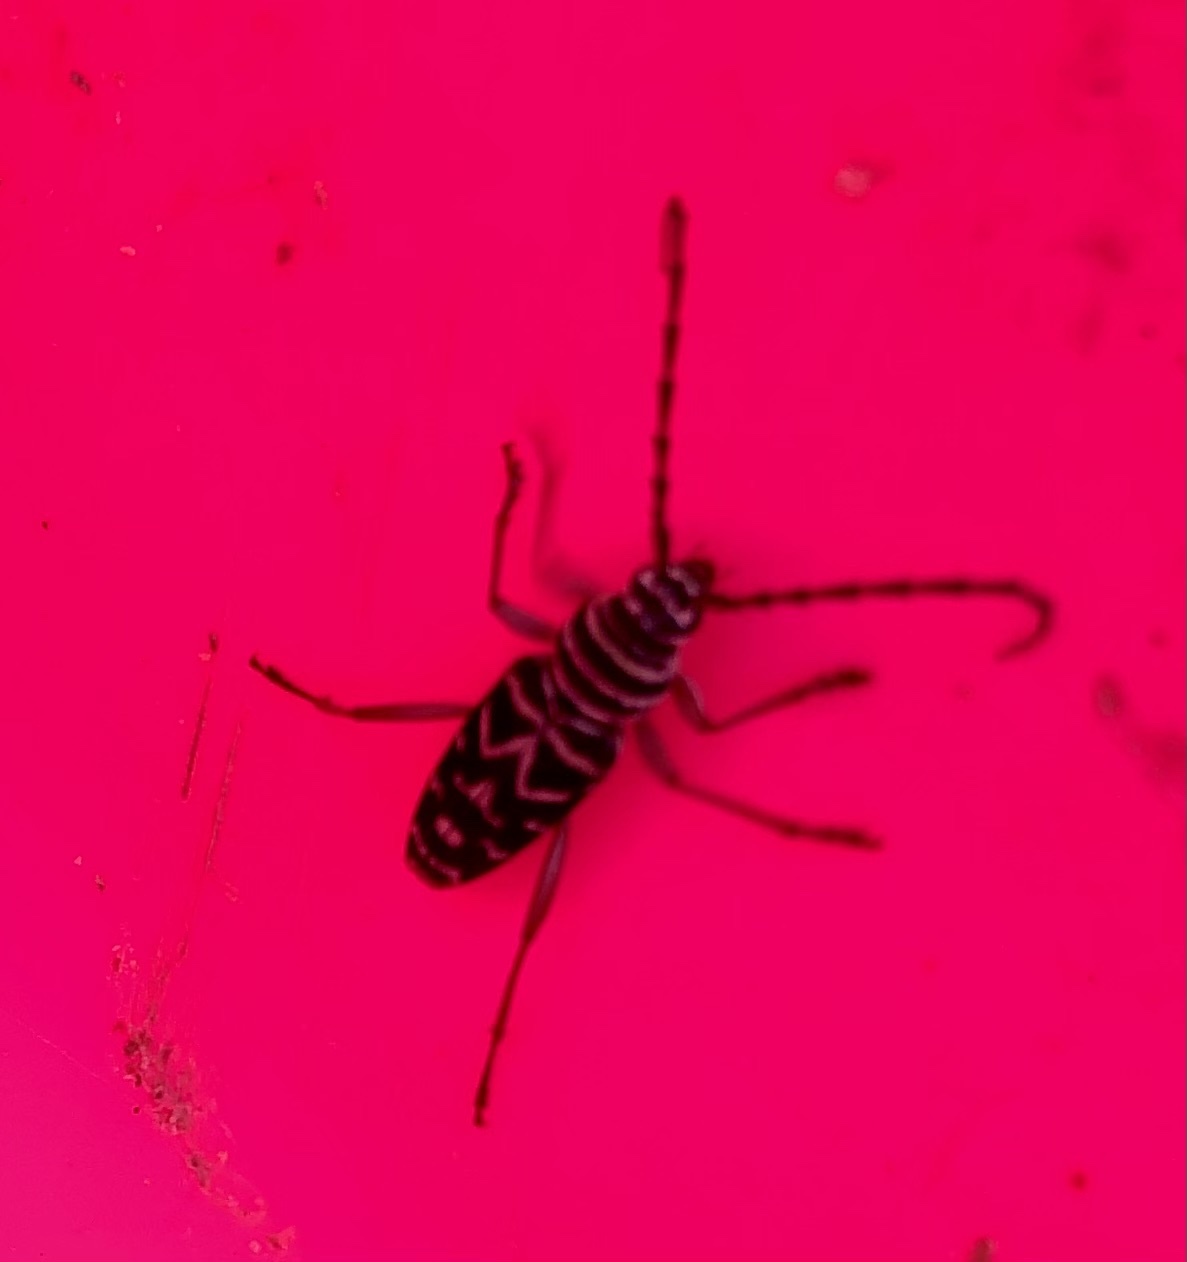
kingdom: Animalia
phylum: Arthropoda
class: Insecta
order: Coleoptera
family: Cerambycidae
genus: Megacyllene
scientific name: Megacyllene caryae
